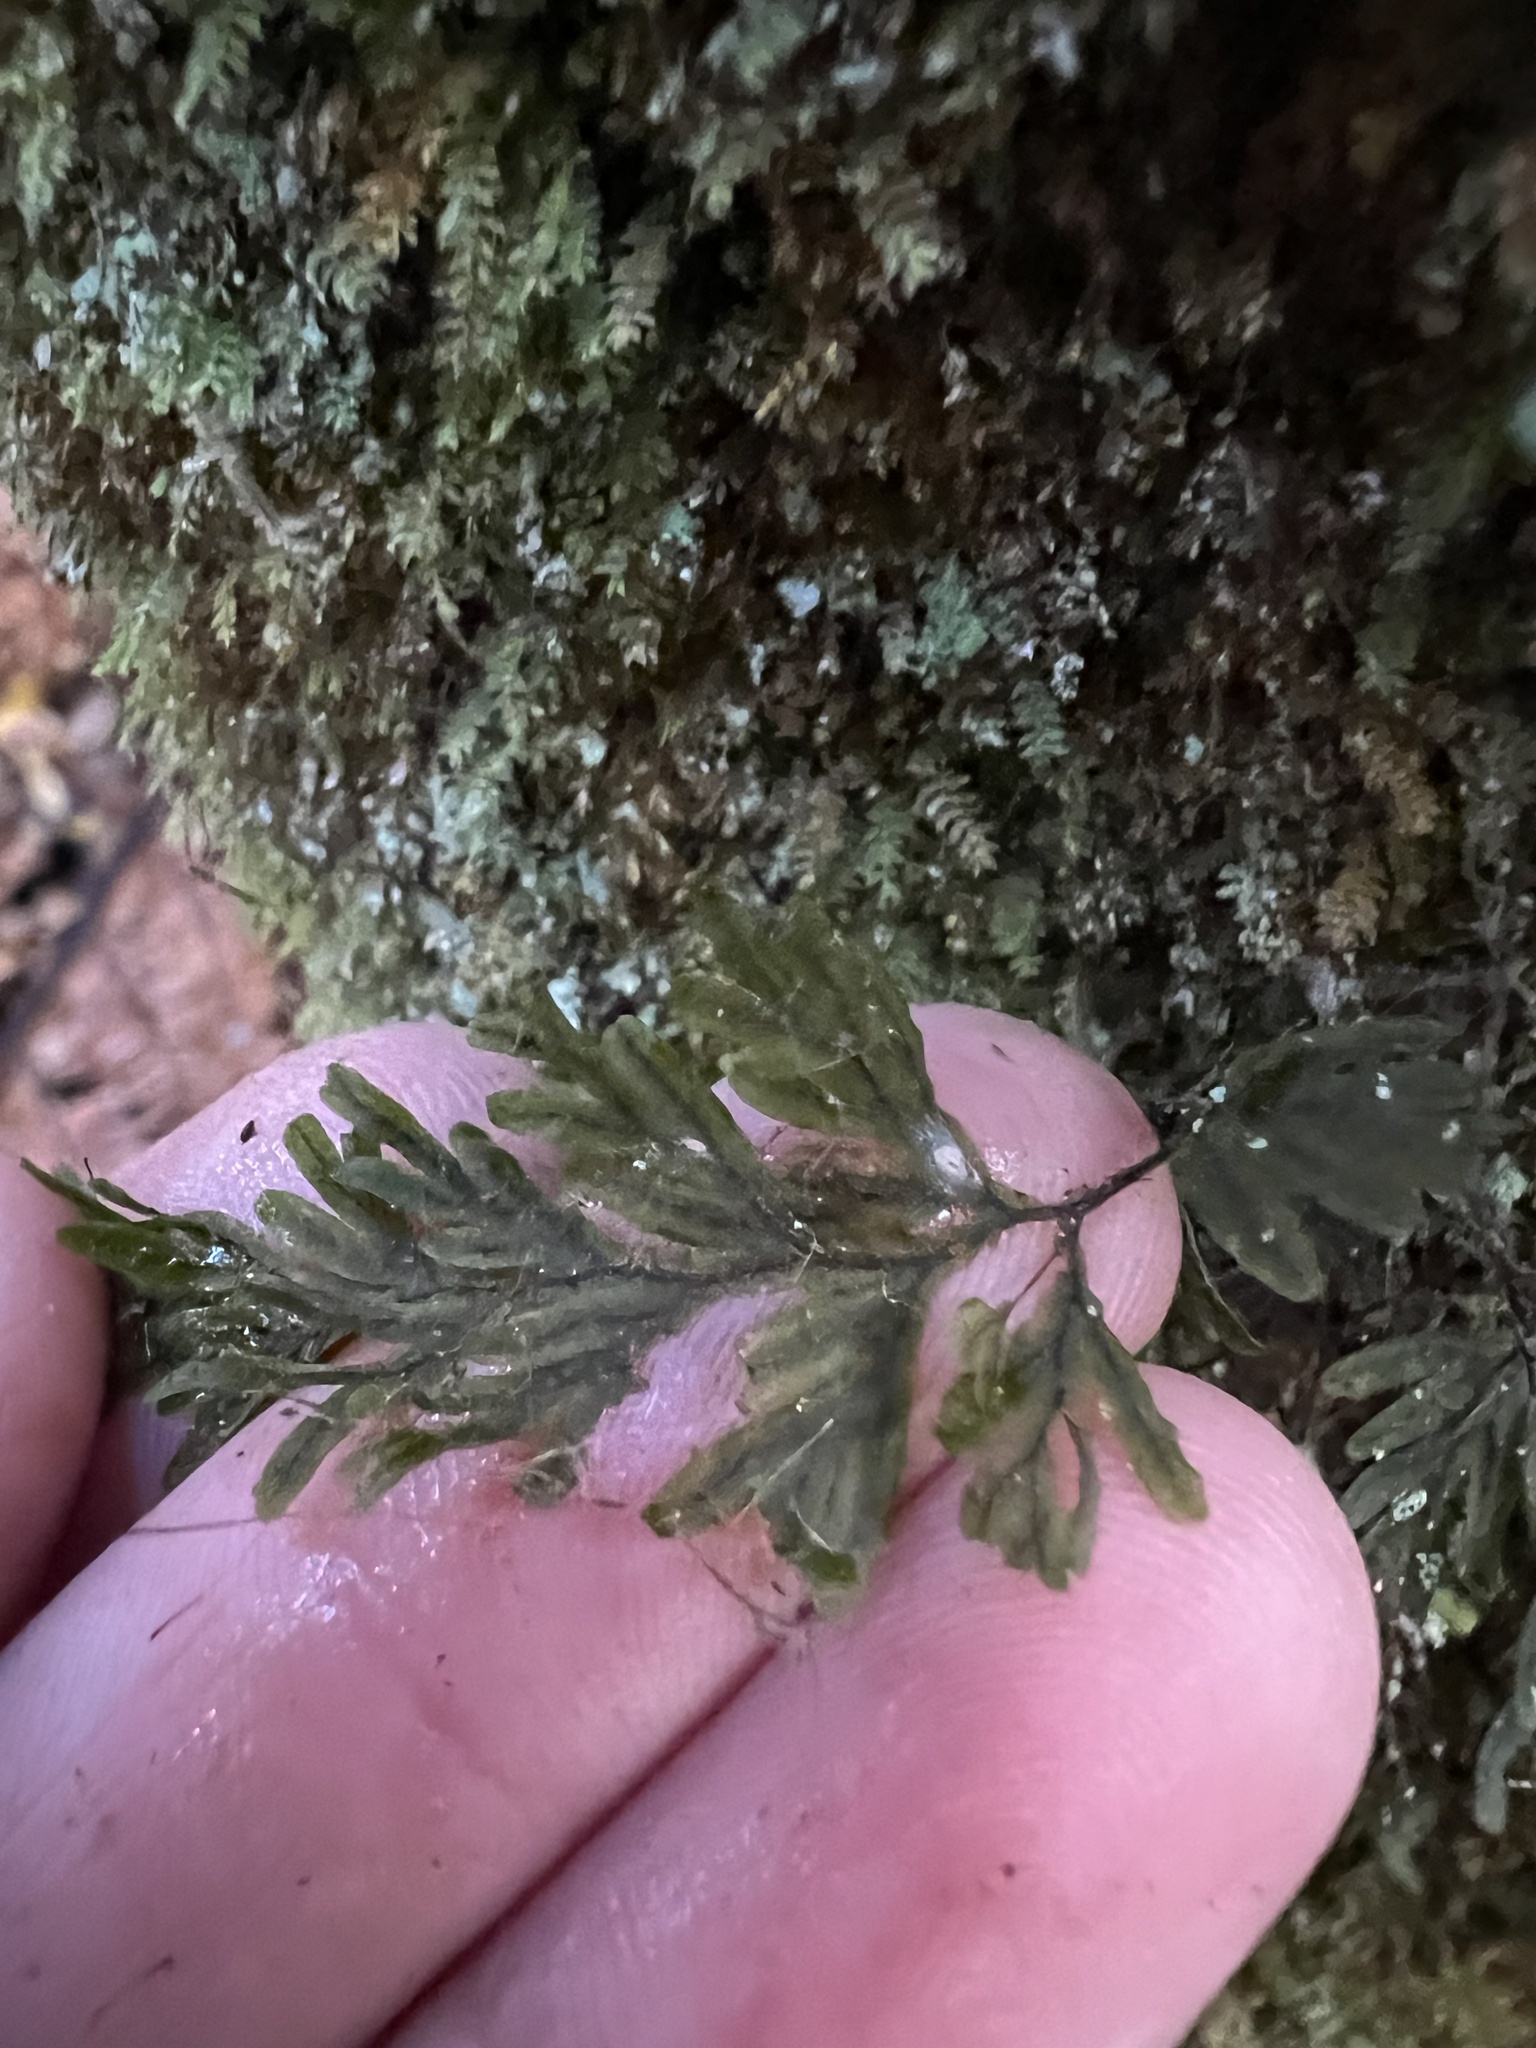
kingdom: Plantae
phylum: Tracheophyta
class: Polypodiopsida
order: Hymenophyllales
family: Hymenophyllaceae
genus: Hymenophyllum
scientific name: Hymenophyllum scabrum
